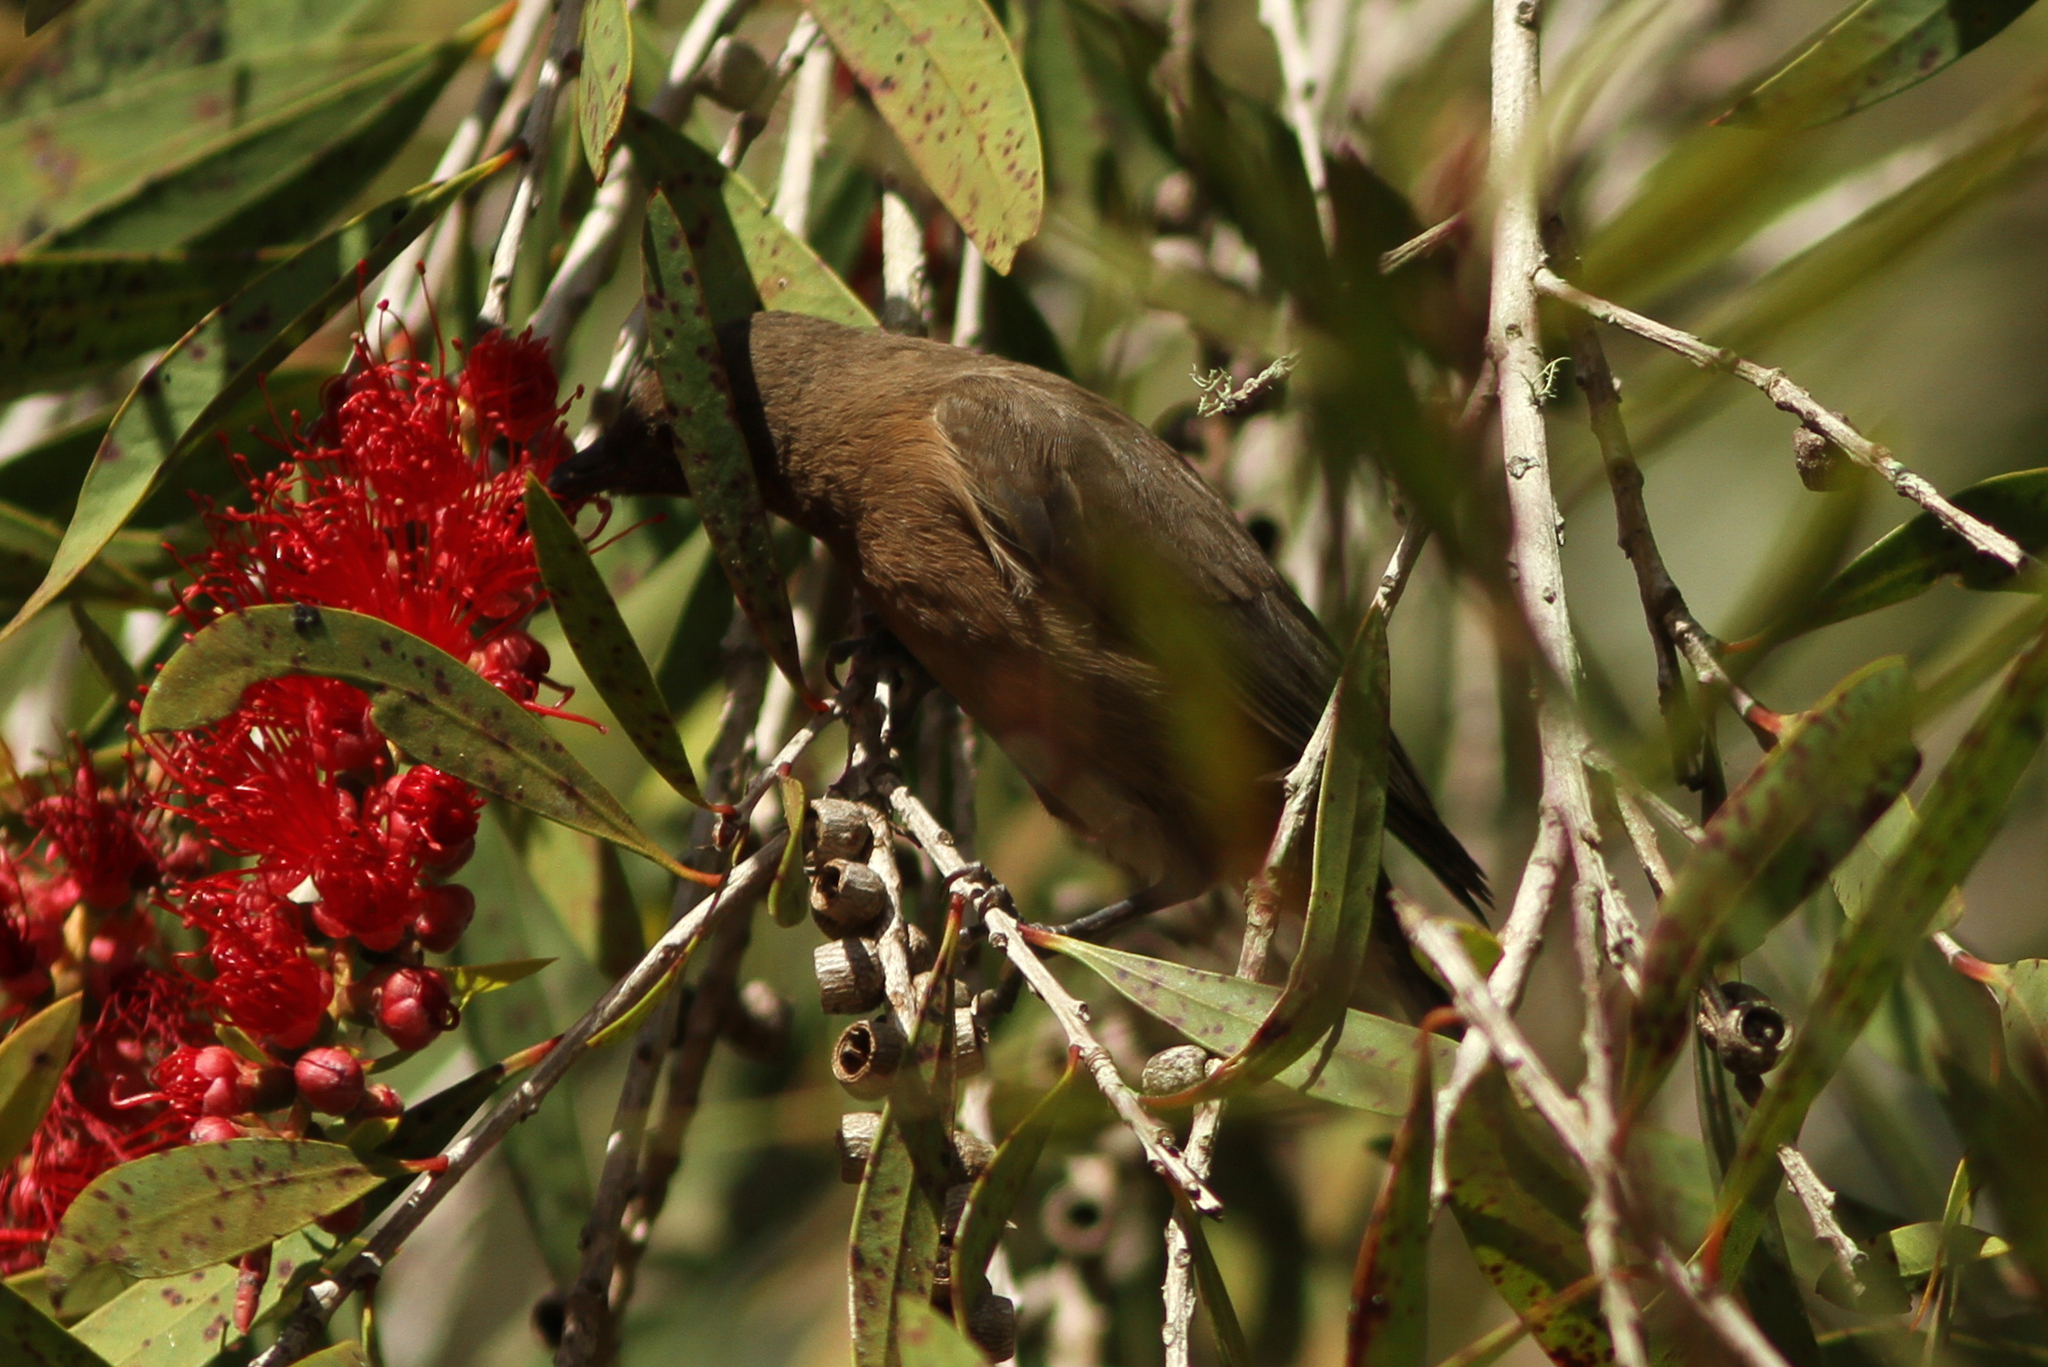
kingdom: Animalia
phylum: Chordata
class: Aves
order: Passeriformes
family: Meliphagidae
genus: Myzomela
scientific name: Myzomela obscura
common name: Dusky myzomela
